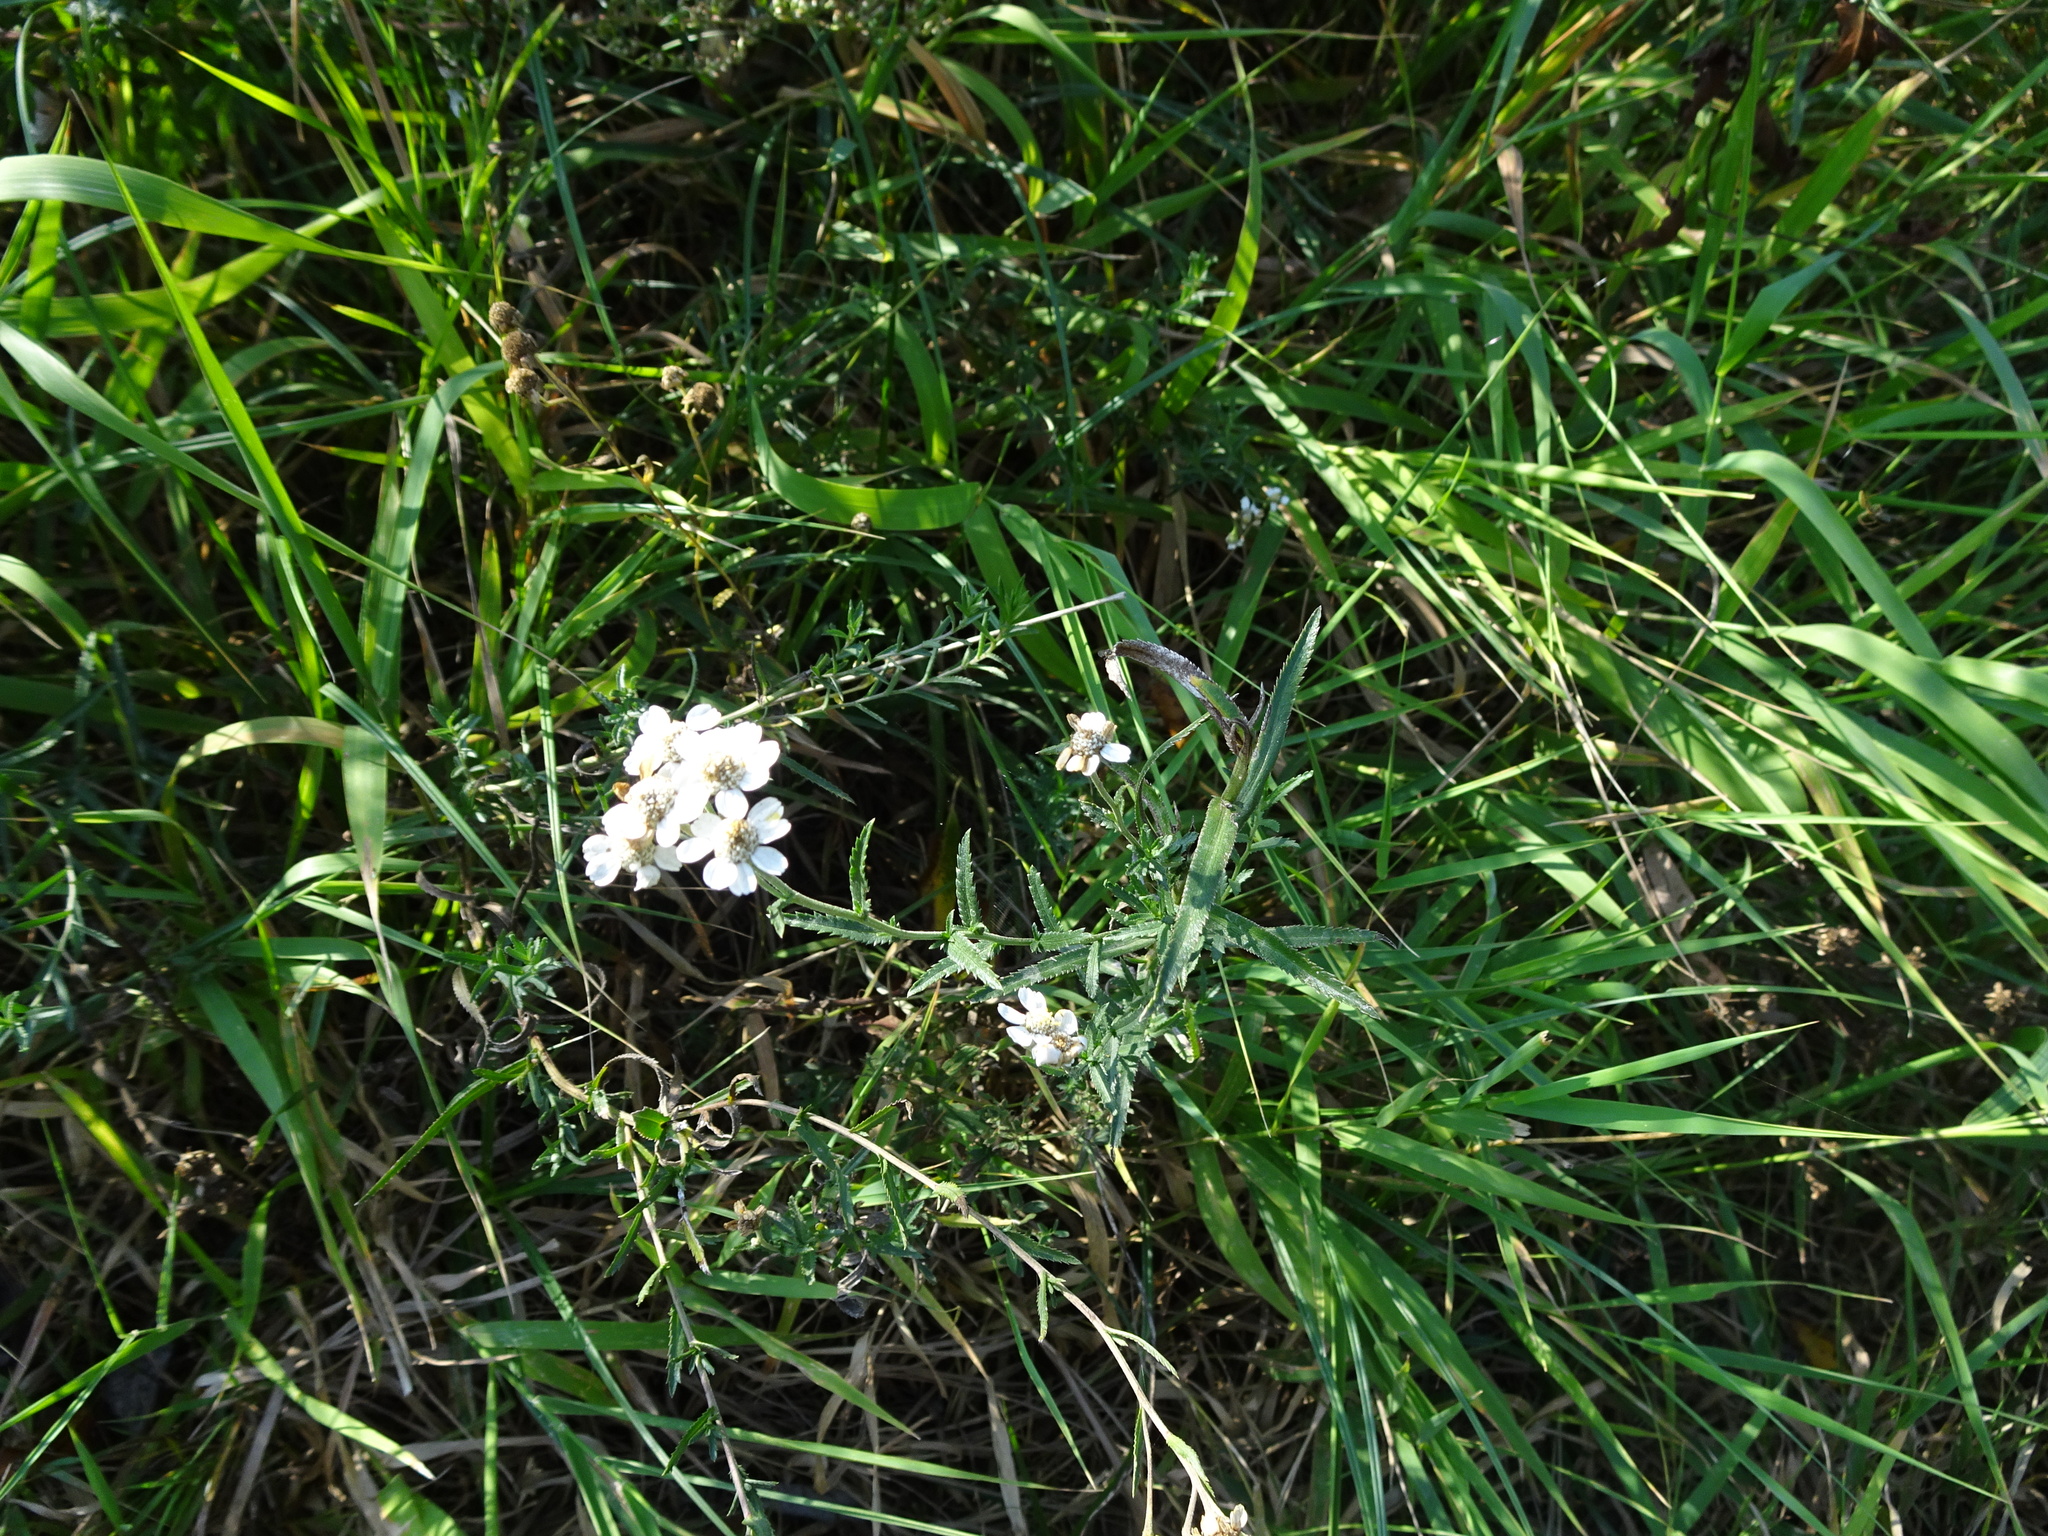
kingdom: Plantae
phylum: Tracheophyta
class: Magnoliopsida
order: Asterales
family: Asteraceae
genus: Achillea
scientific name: Achillea ptarmica
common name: Sneezeweed
